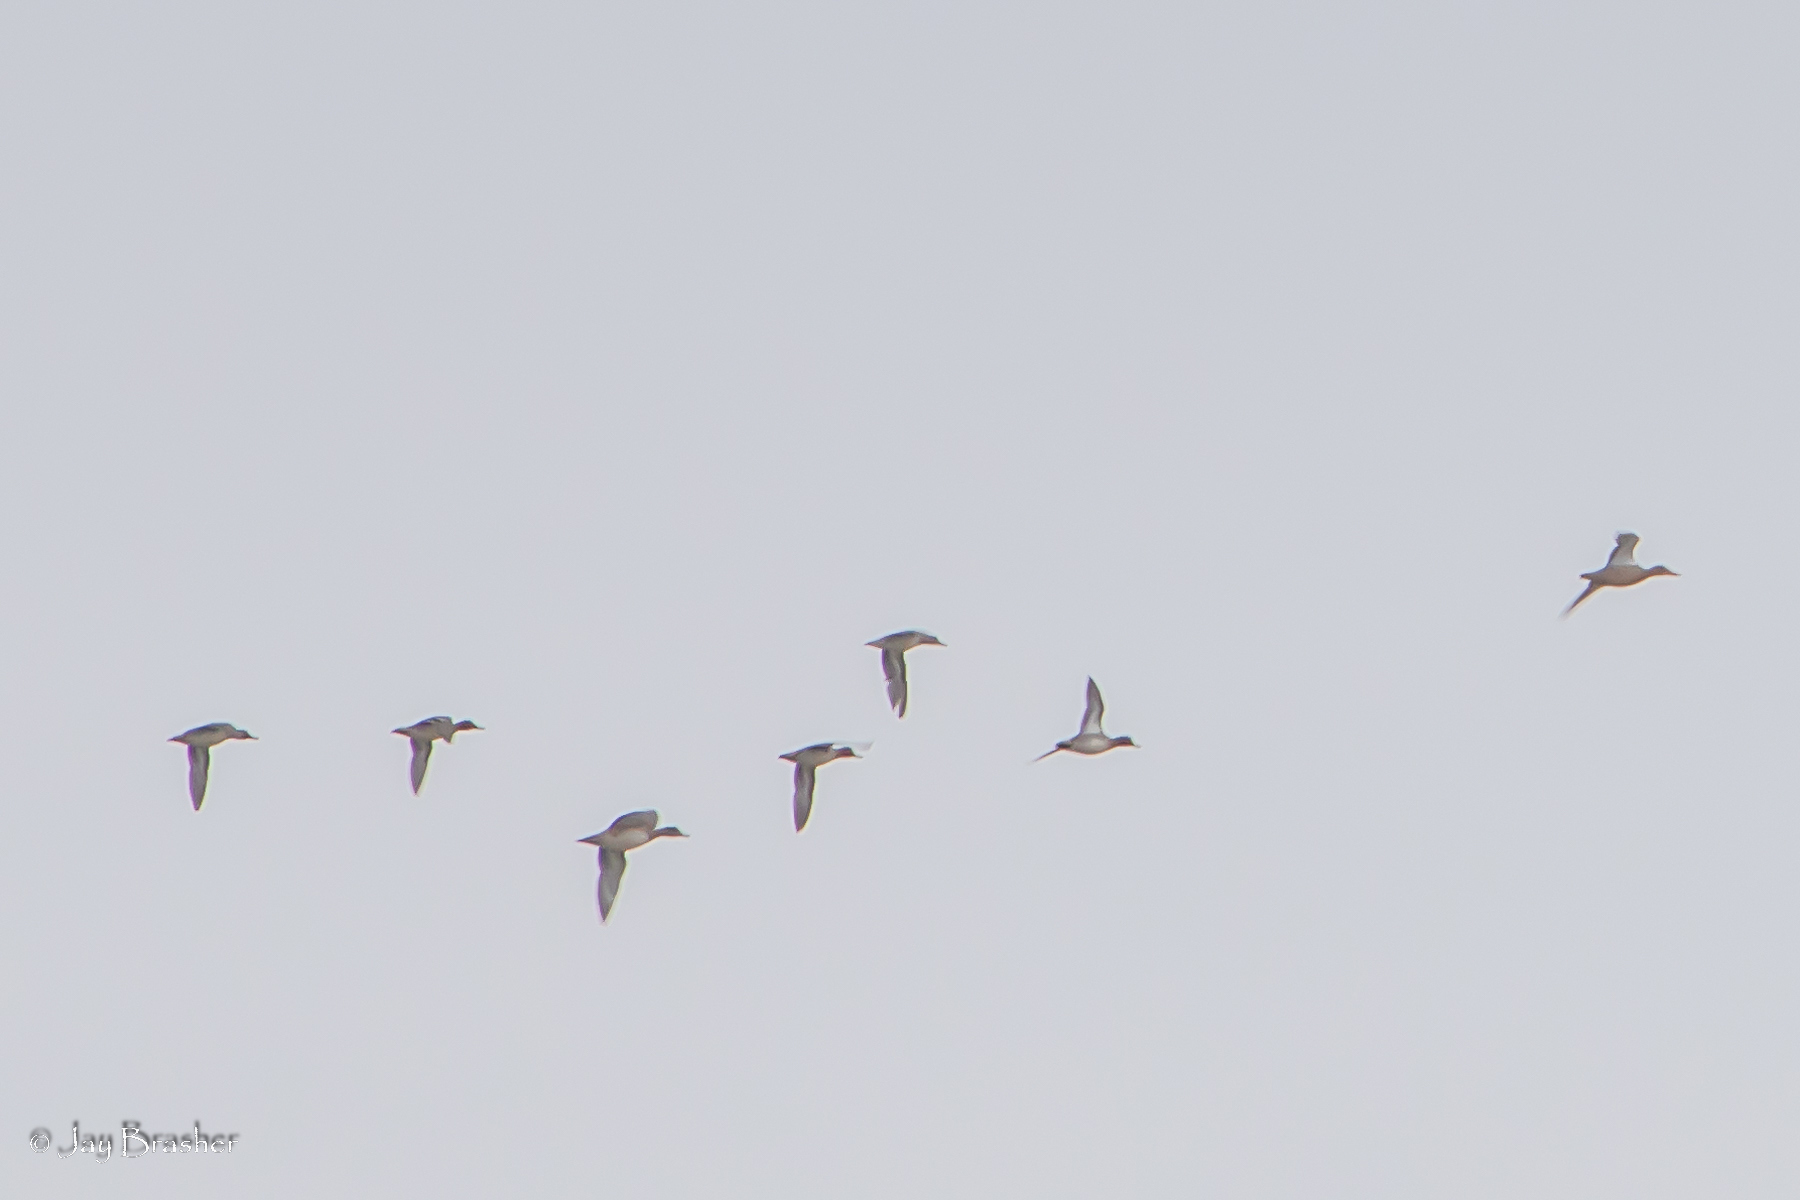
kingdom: Animalia
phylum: Chordata
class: Aves
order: Anseriformes
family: Anatidae
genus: Anas
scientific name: Anas crecca
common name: Eurasian teal
